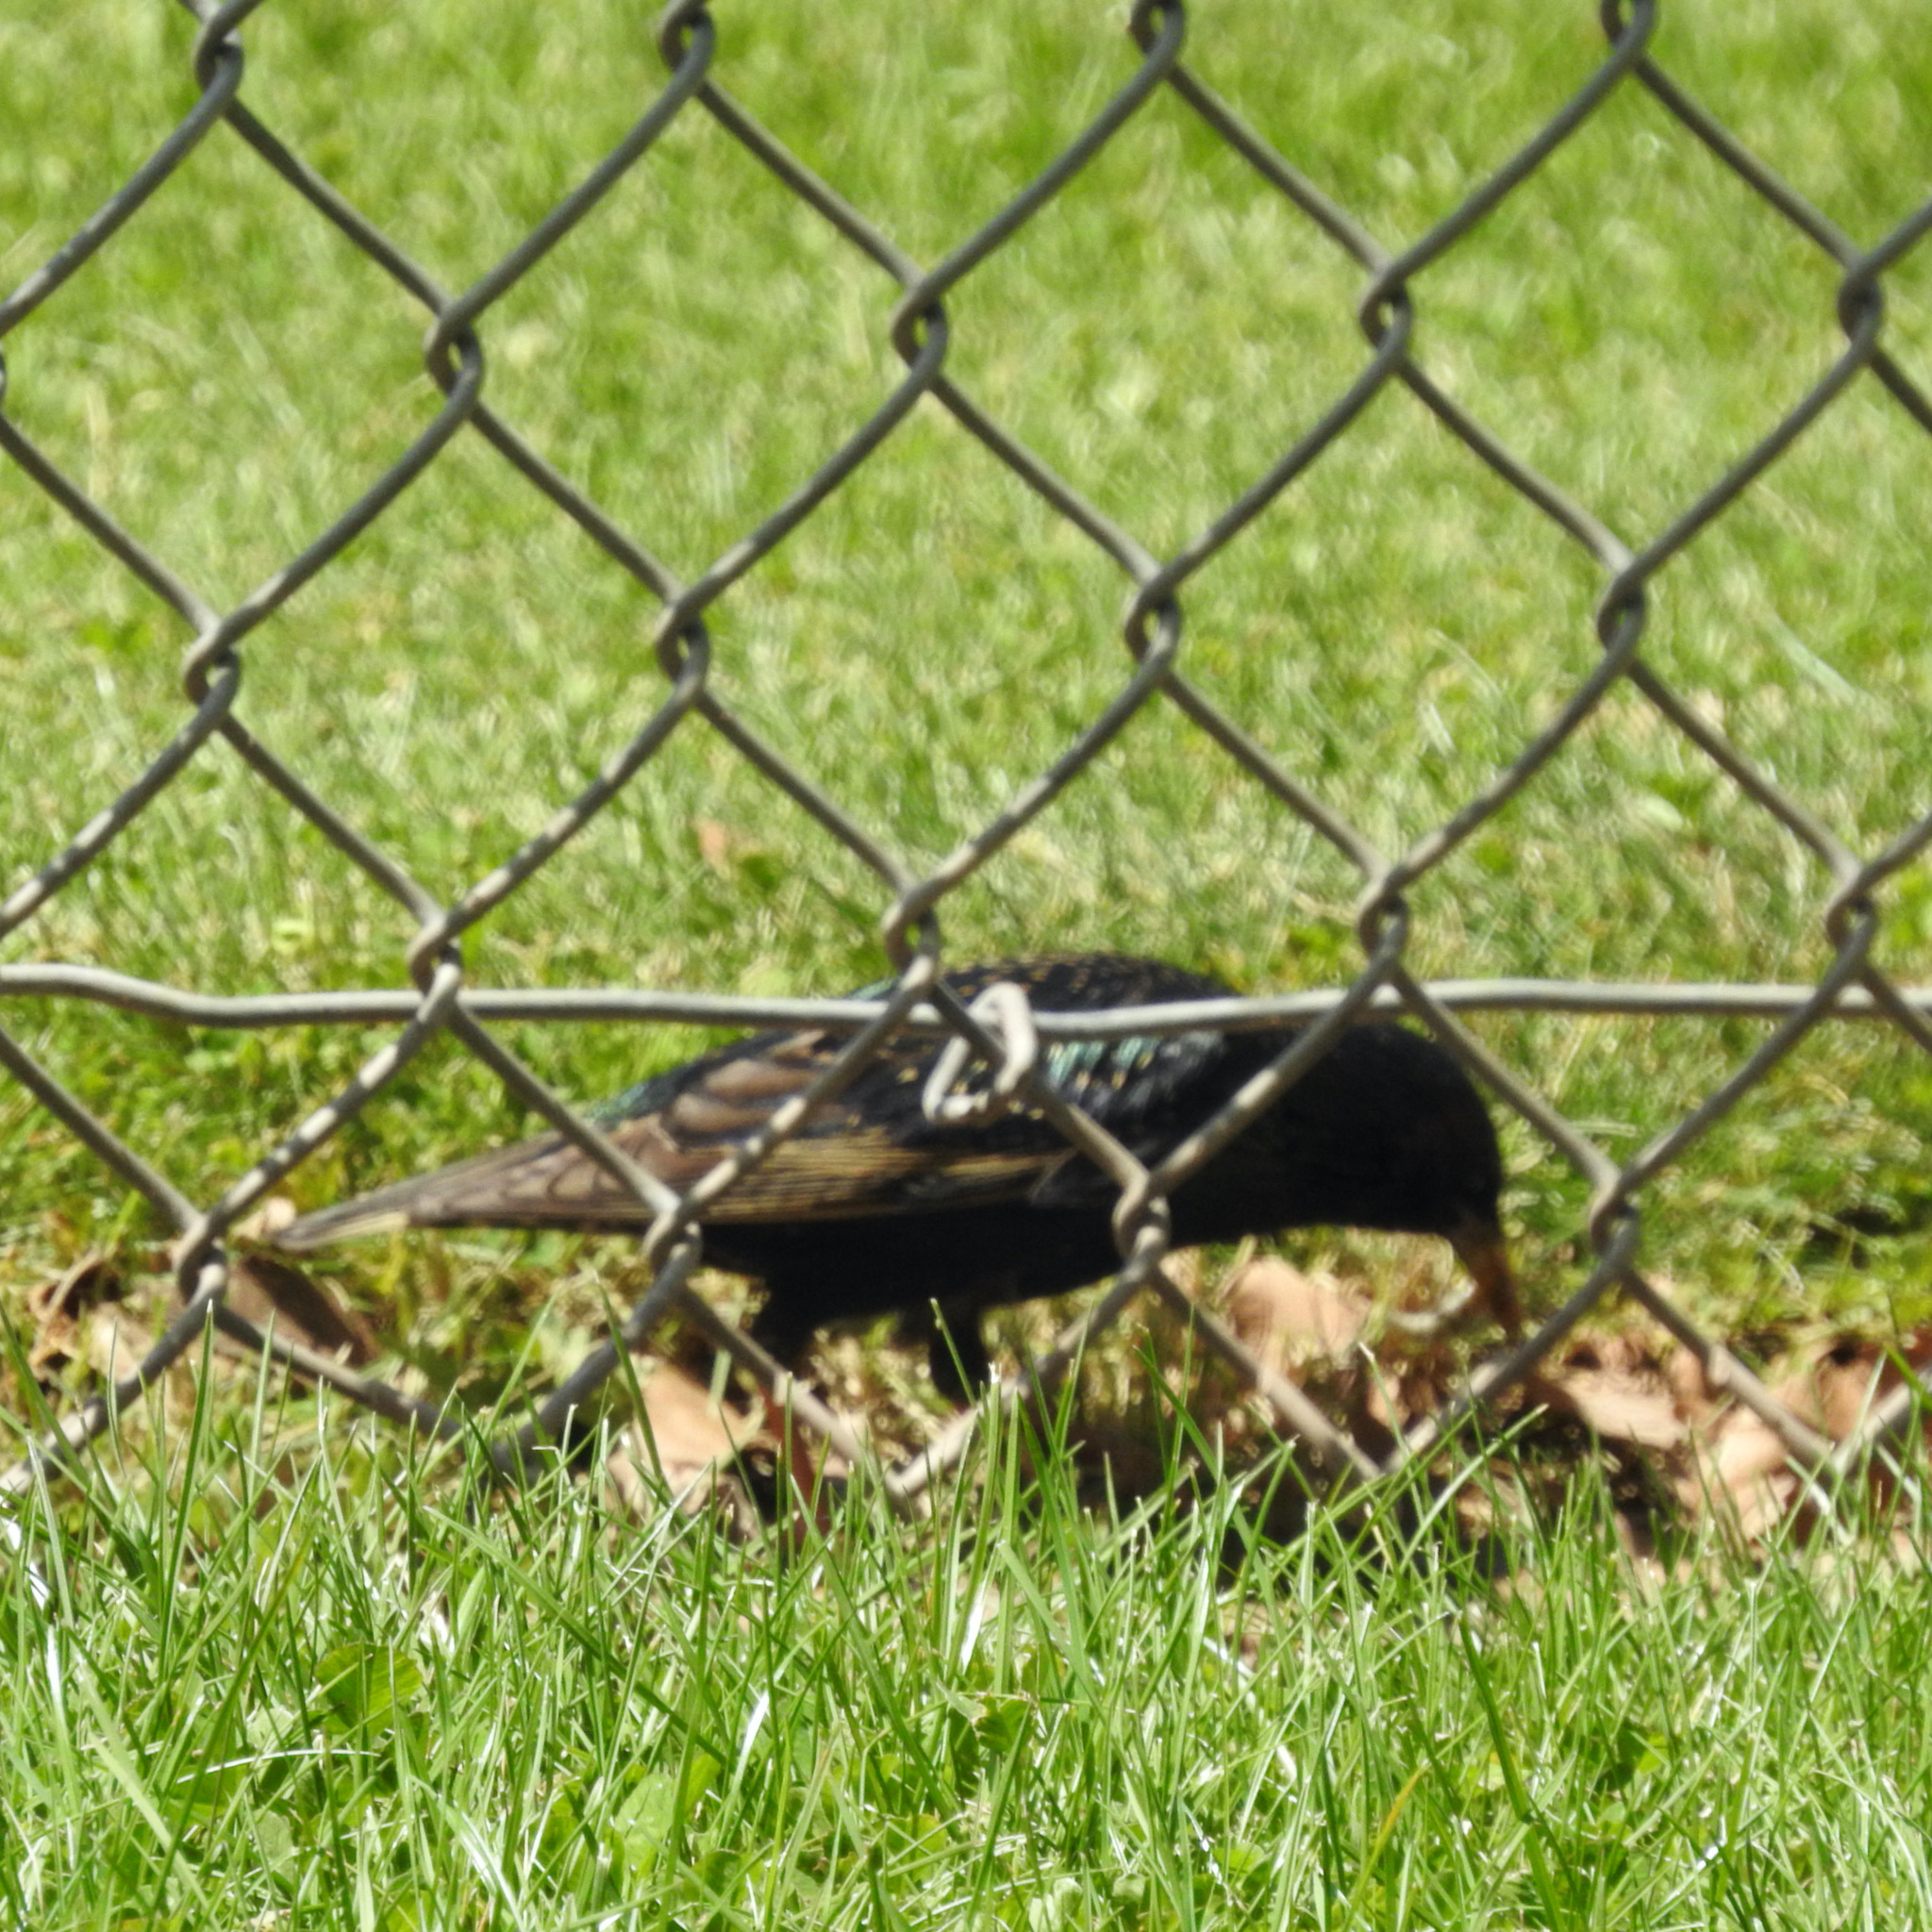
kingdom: Animalia
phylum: Chordata
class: Aves
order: Passeriformes
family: Sturnidae
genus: Sturnus
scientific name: Sturnus vulgaris
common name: Common starling
